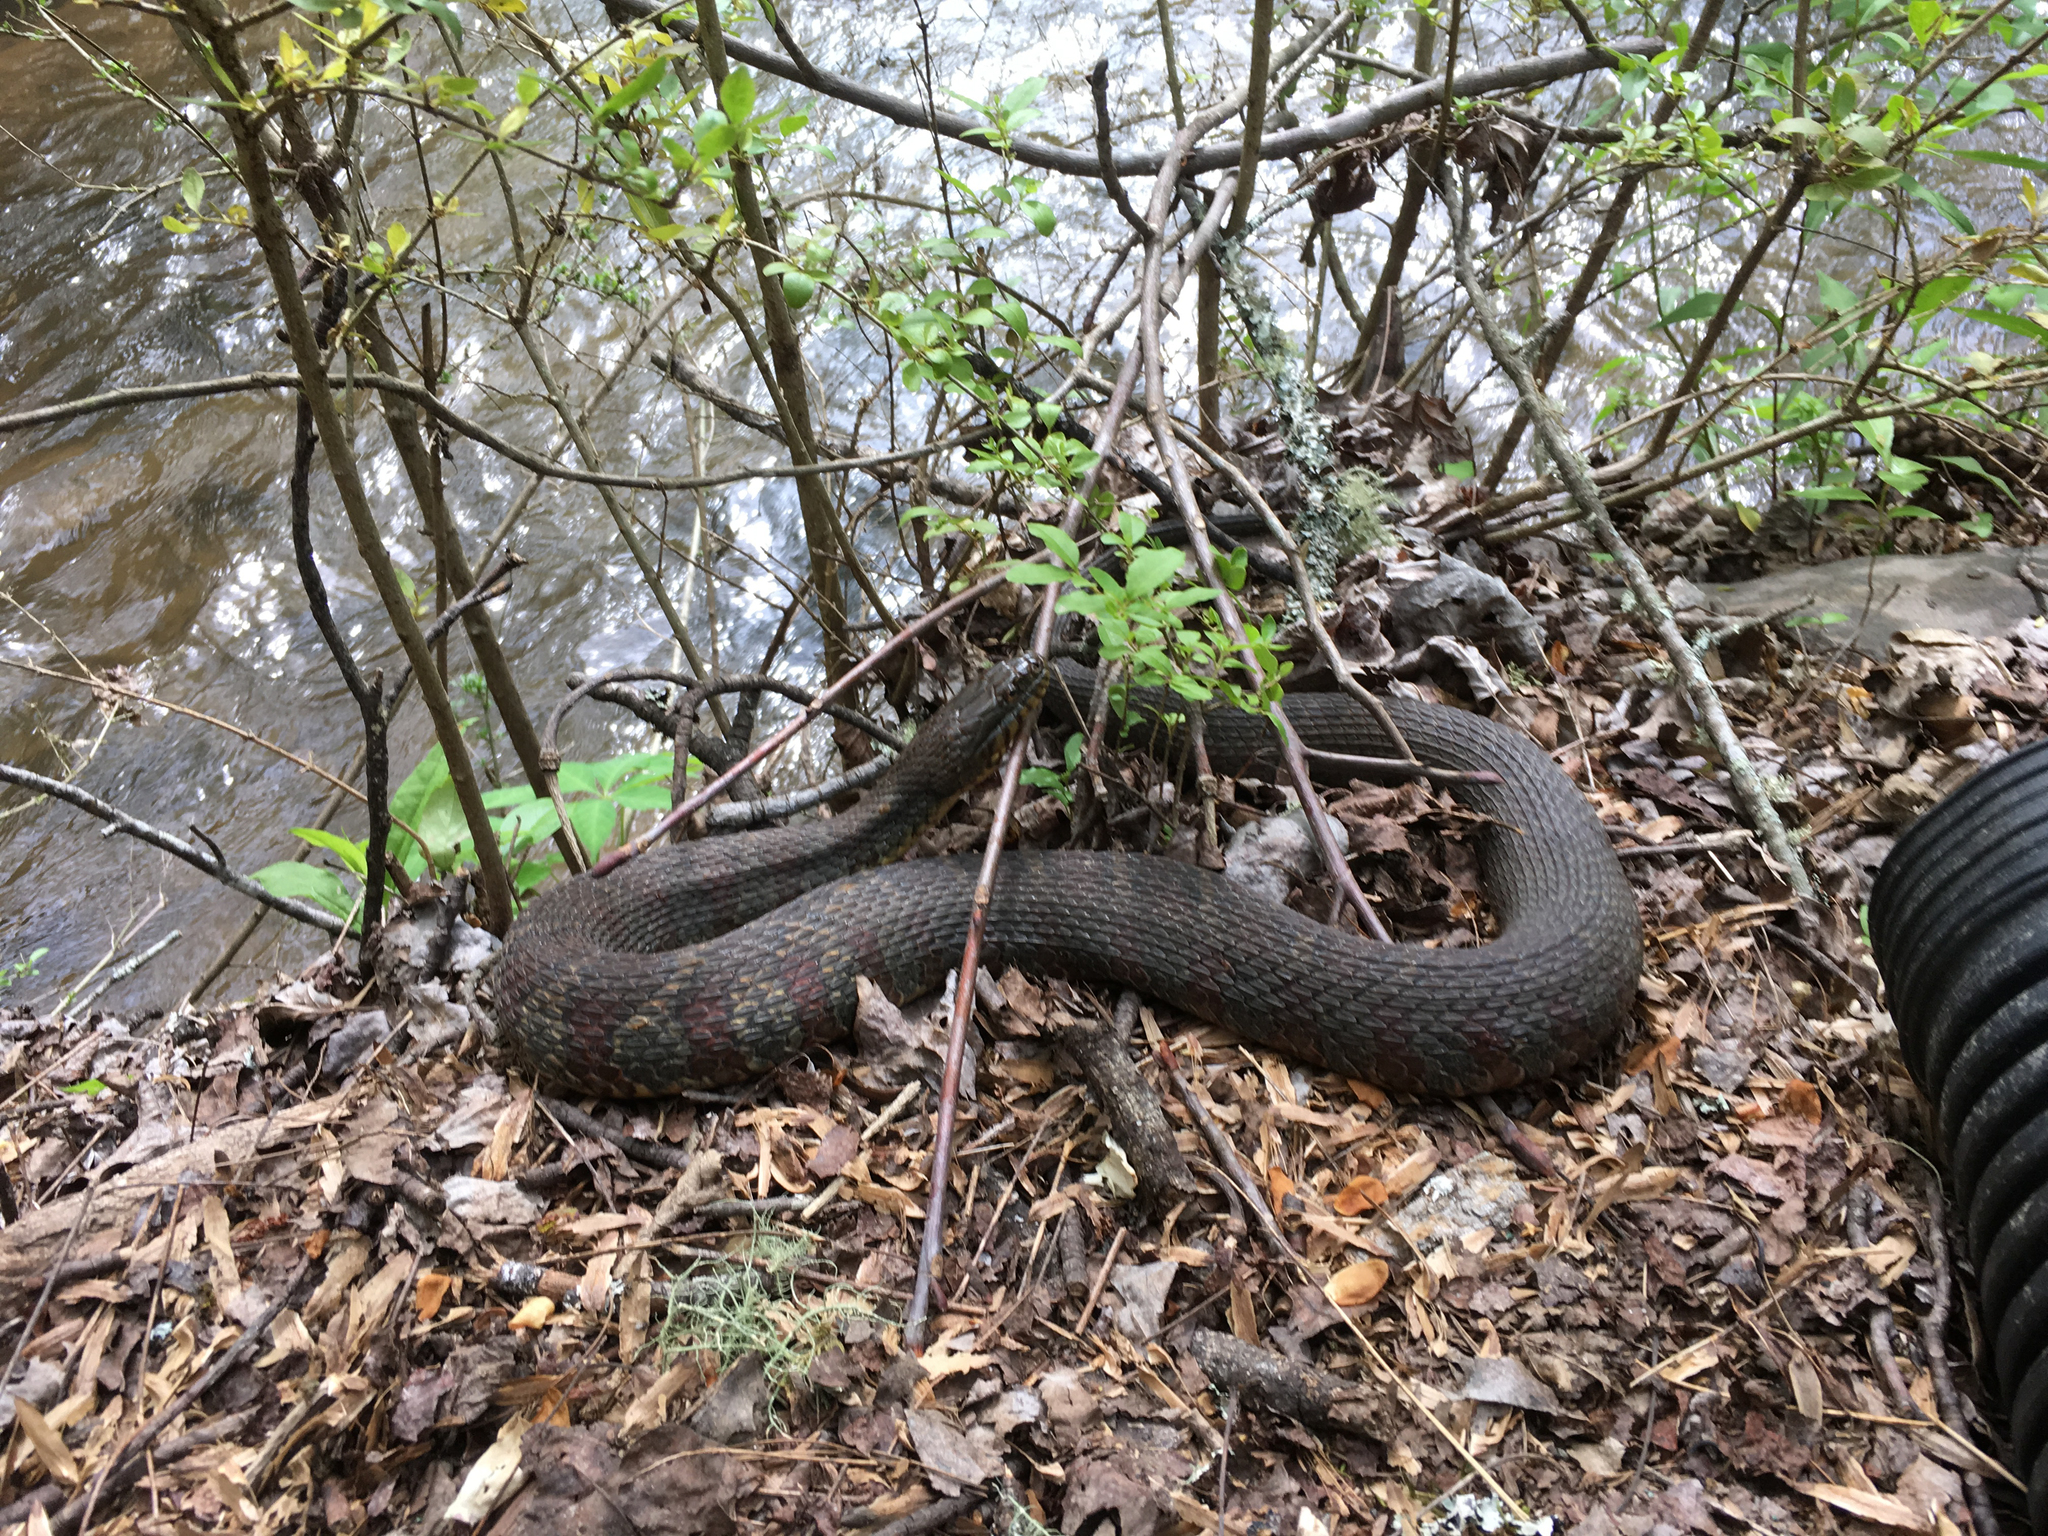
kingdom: Animalia
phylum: Chordata
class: Squamata
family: Colubridae
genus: Nerodia
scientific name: Nerodia sipedon
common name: Northern water snake
